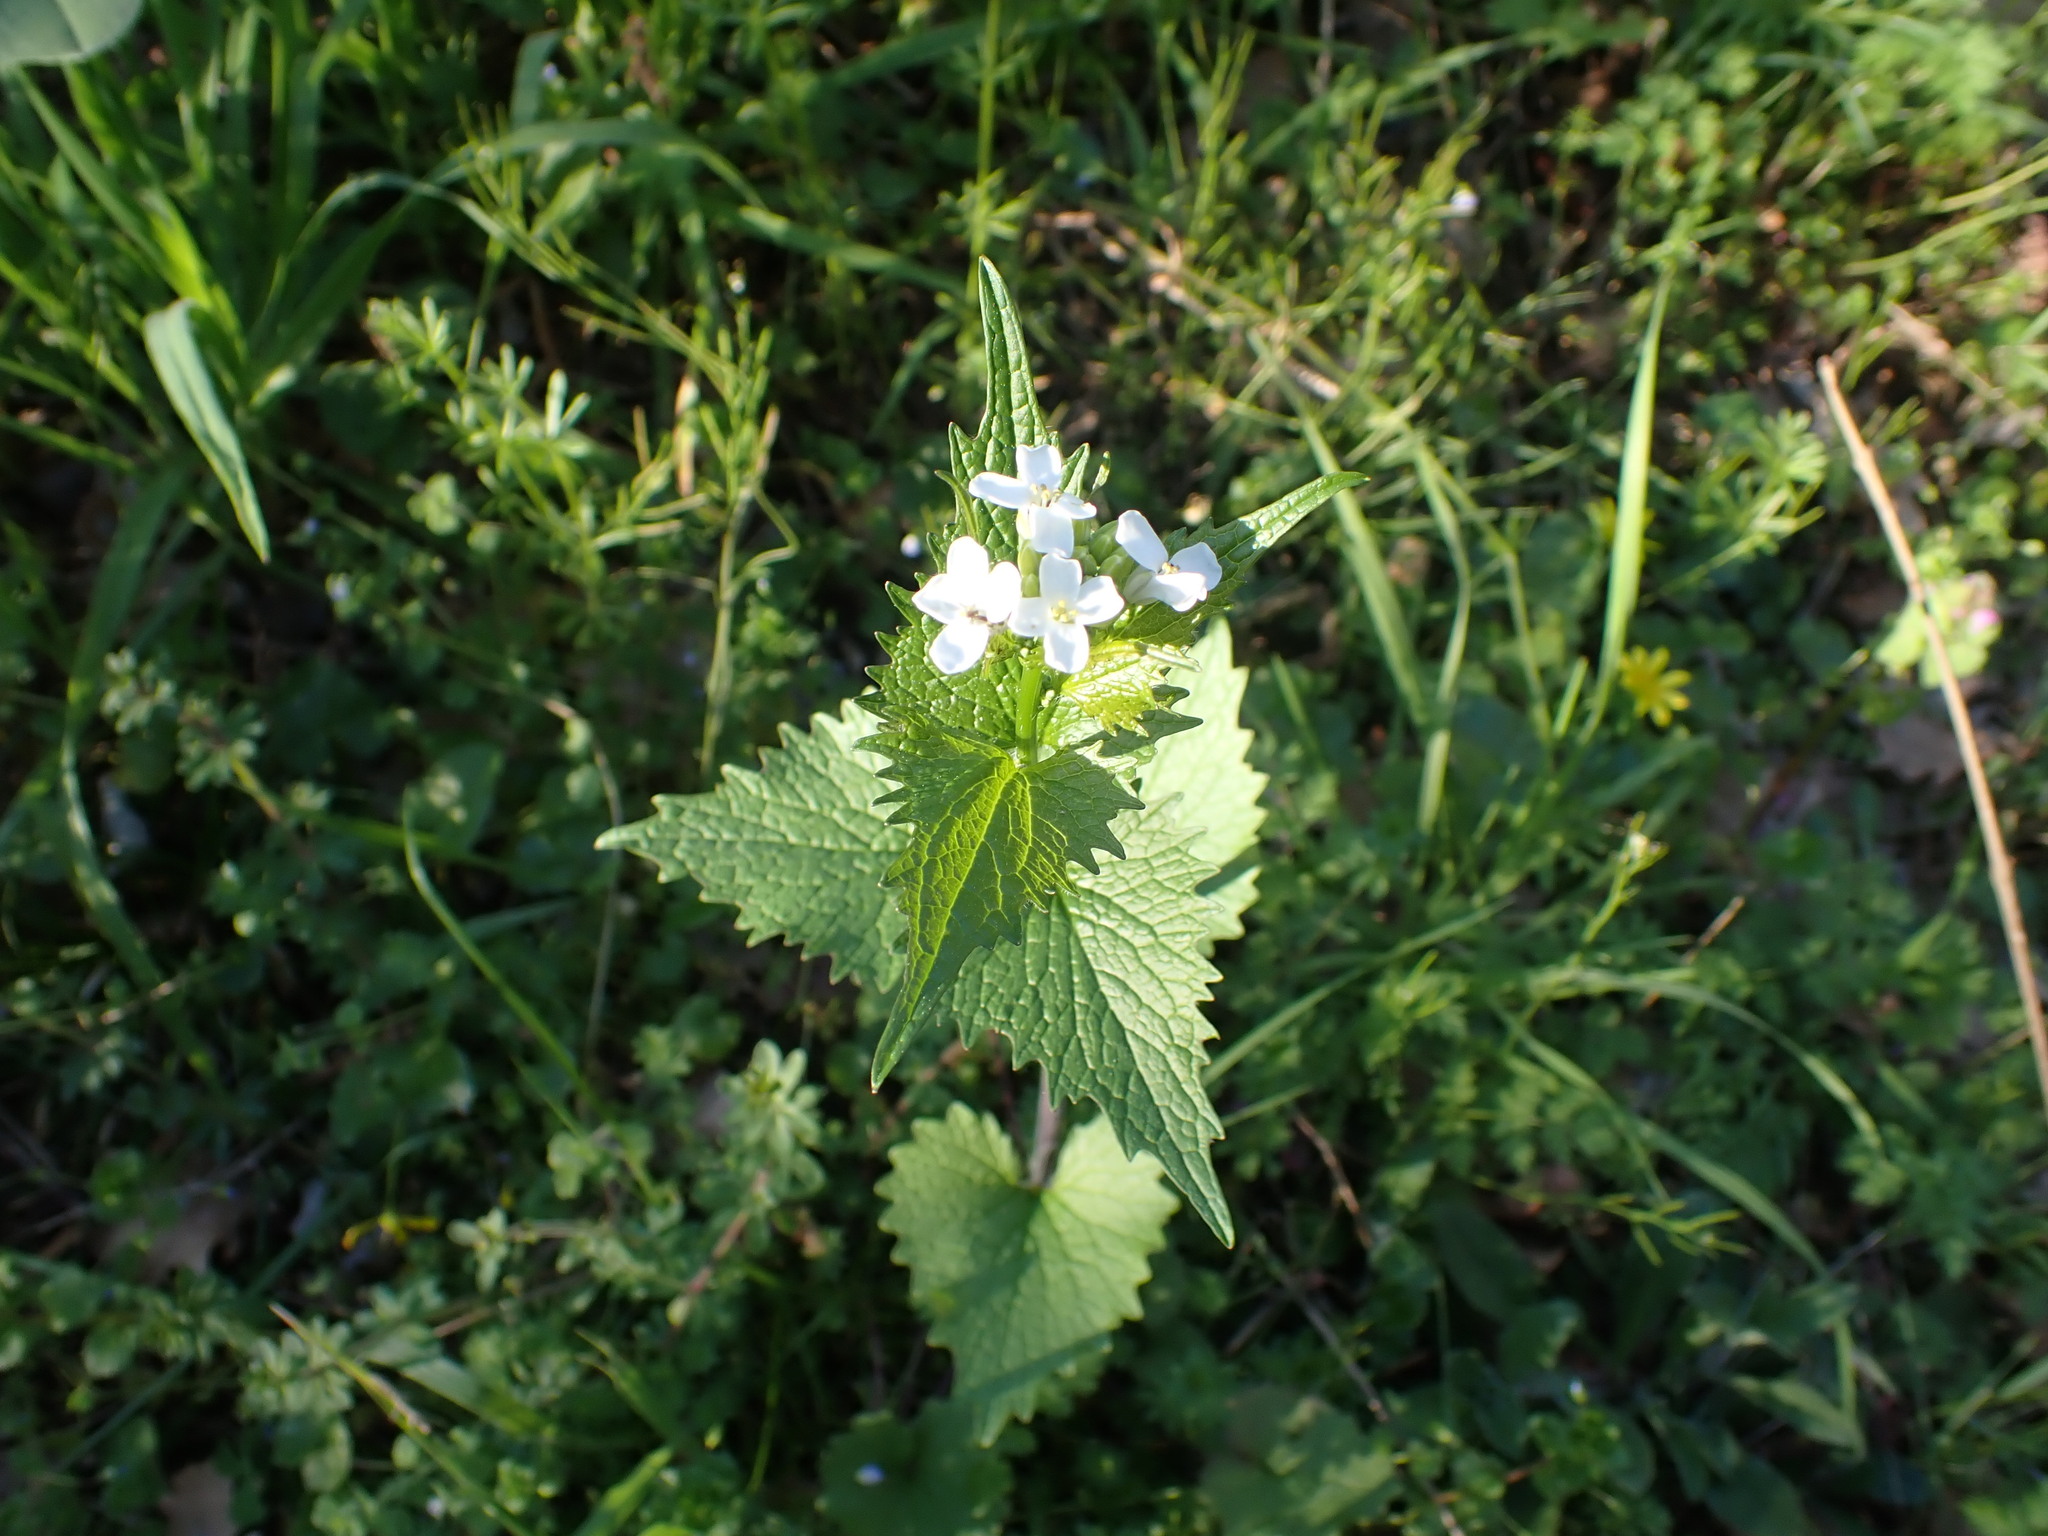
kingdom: Plantae
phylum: Tracheophyta
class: Magnoliopsida
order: Brassicales
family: Brassicaceae
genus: Alliaria
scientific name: Alliaria petiolata
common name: Garlic mustard
